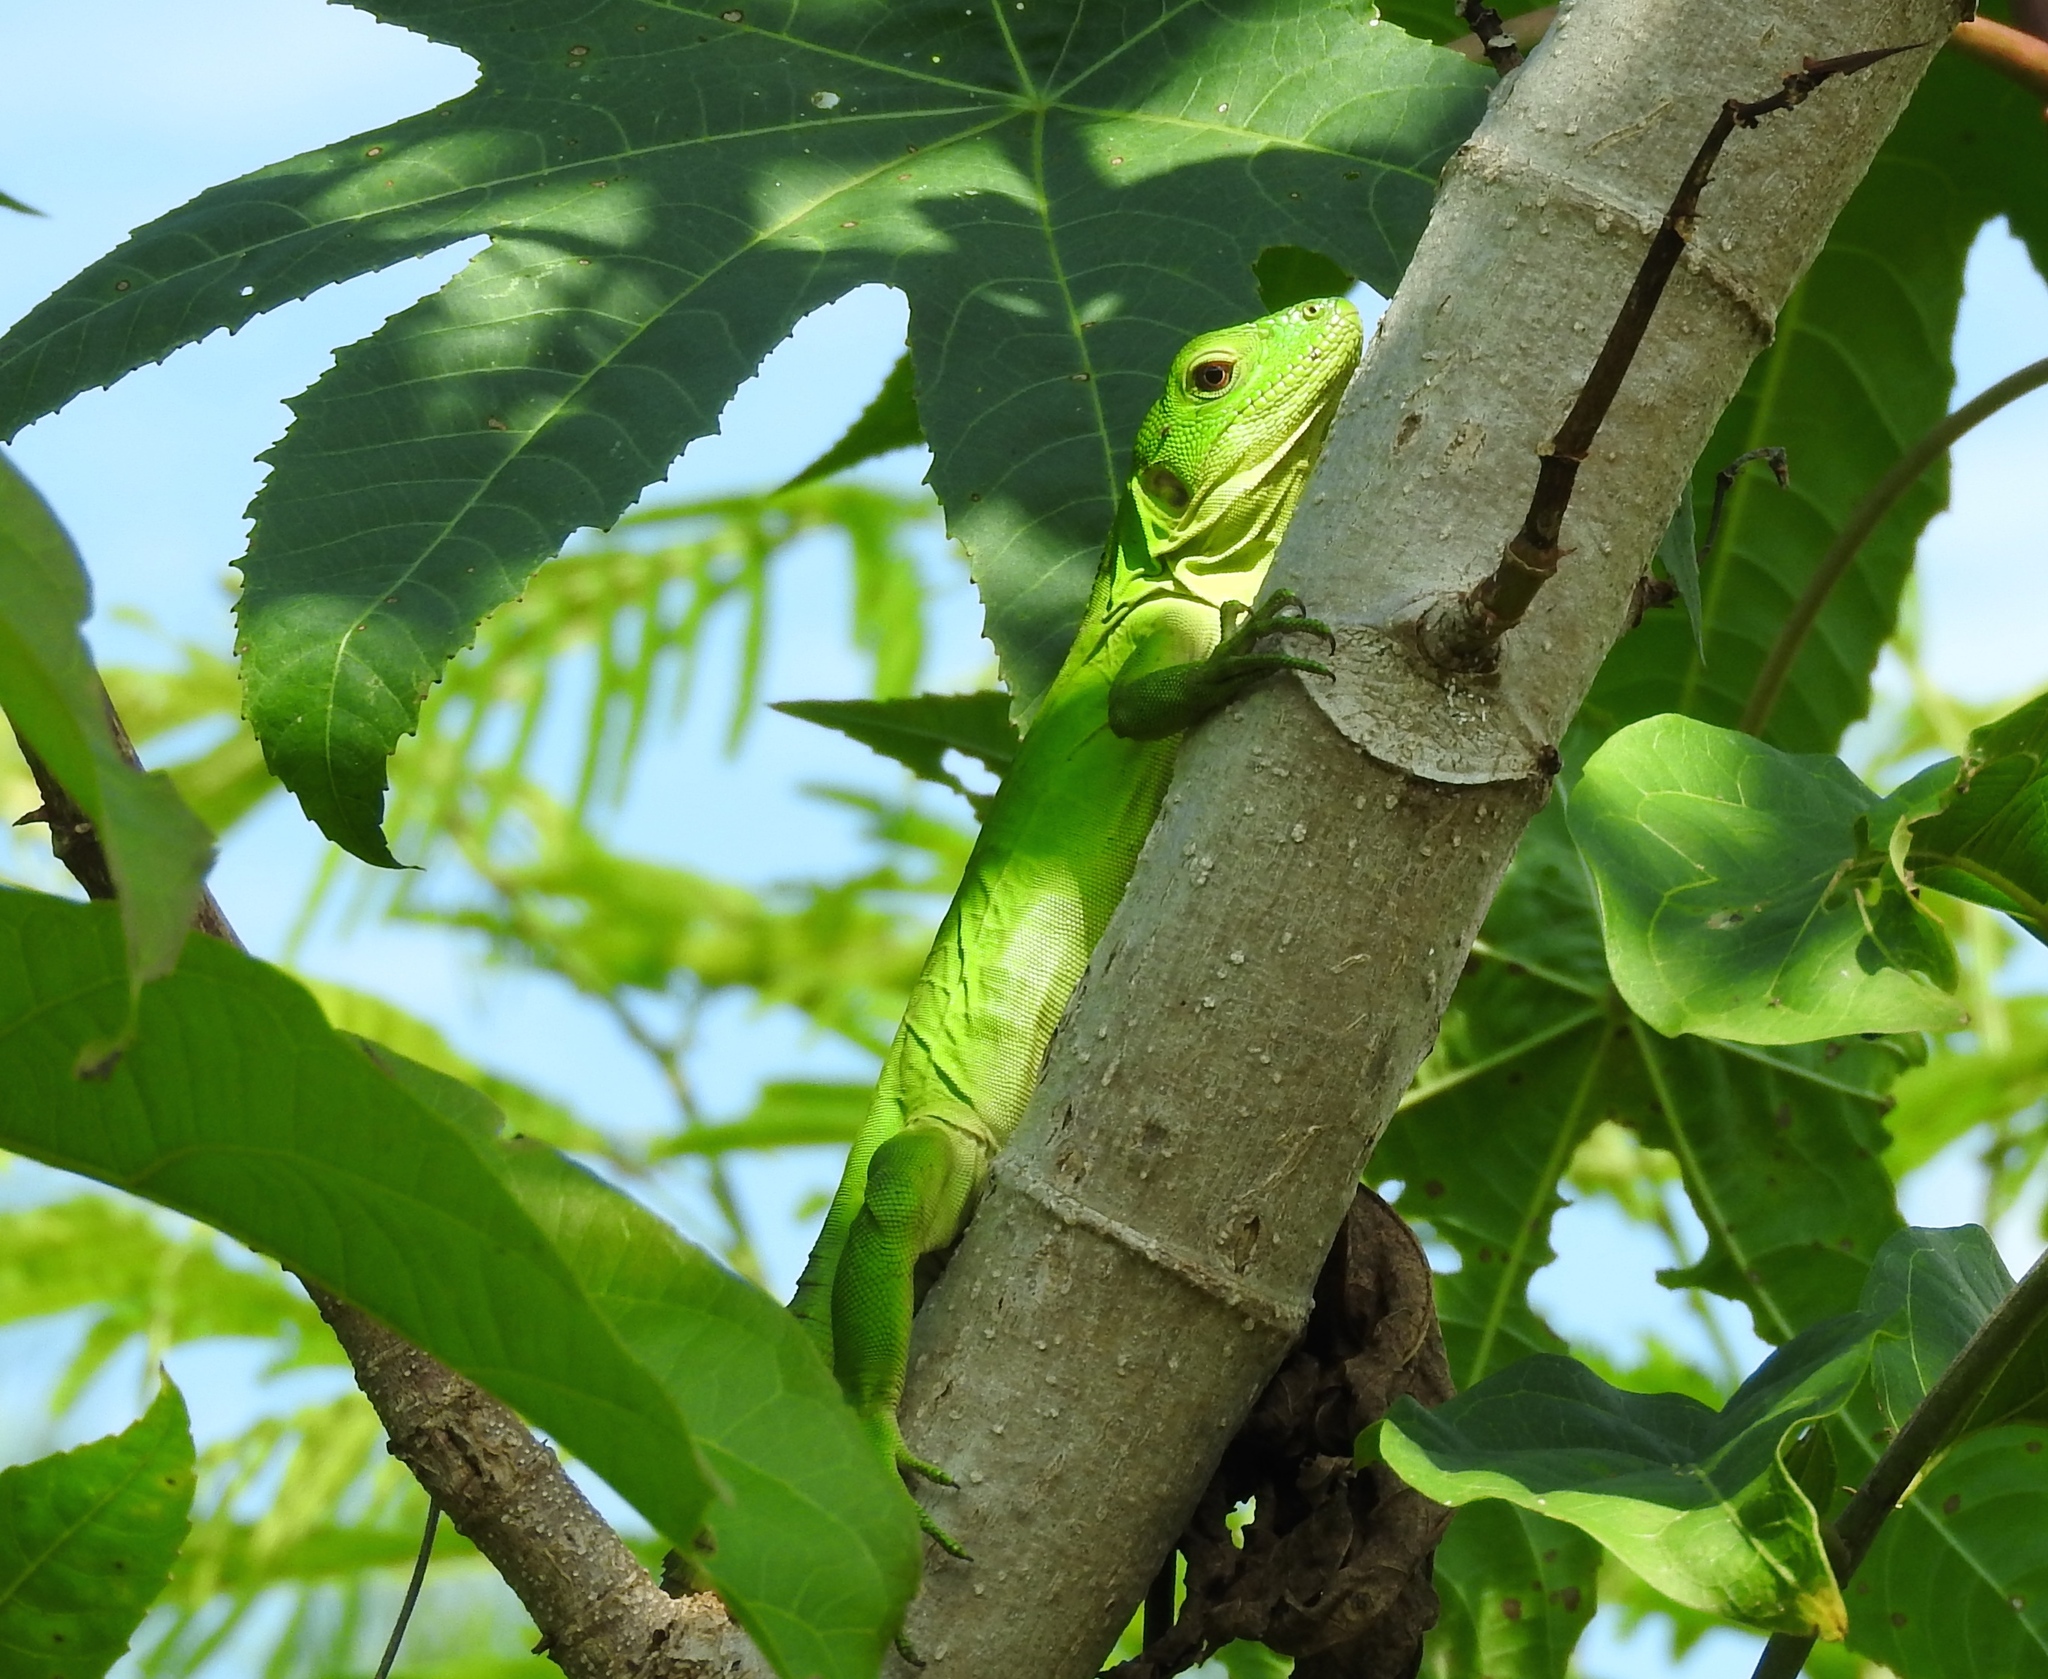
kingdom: Animalia
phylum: Chordata
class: Squamata
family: Iguanidae
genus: Ctenosaura
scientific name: Ctenosaura pectinata
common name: Guerreran spiny-tailed iguana
